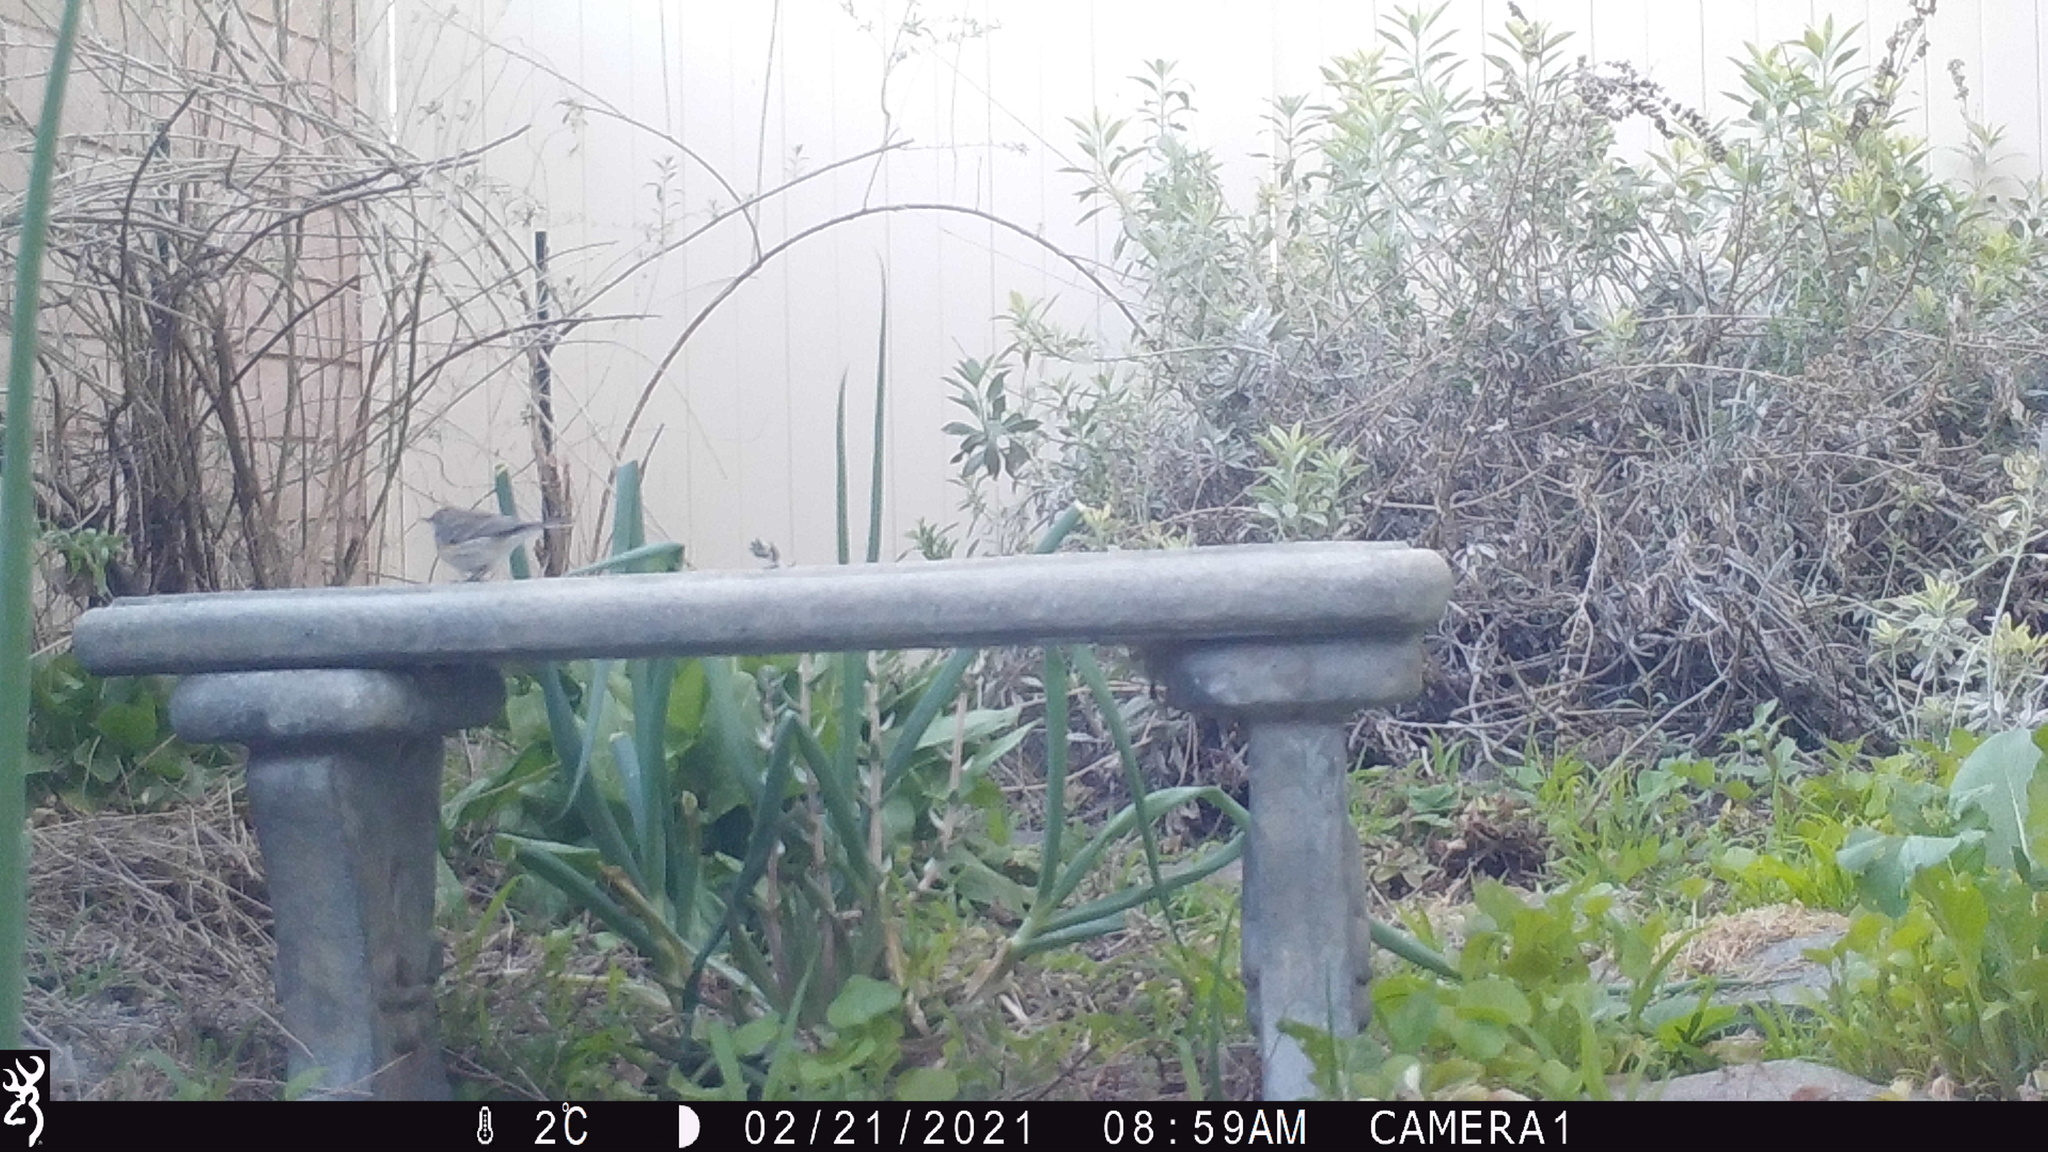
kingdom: Animalia
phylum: Chordata
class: Aves
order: Passeriformes
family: Parulidae
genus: Setophaga
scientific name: Setophaga coronata
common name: Myrtle warbler
